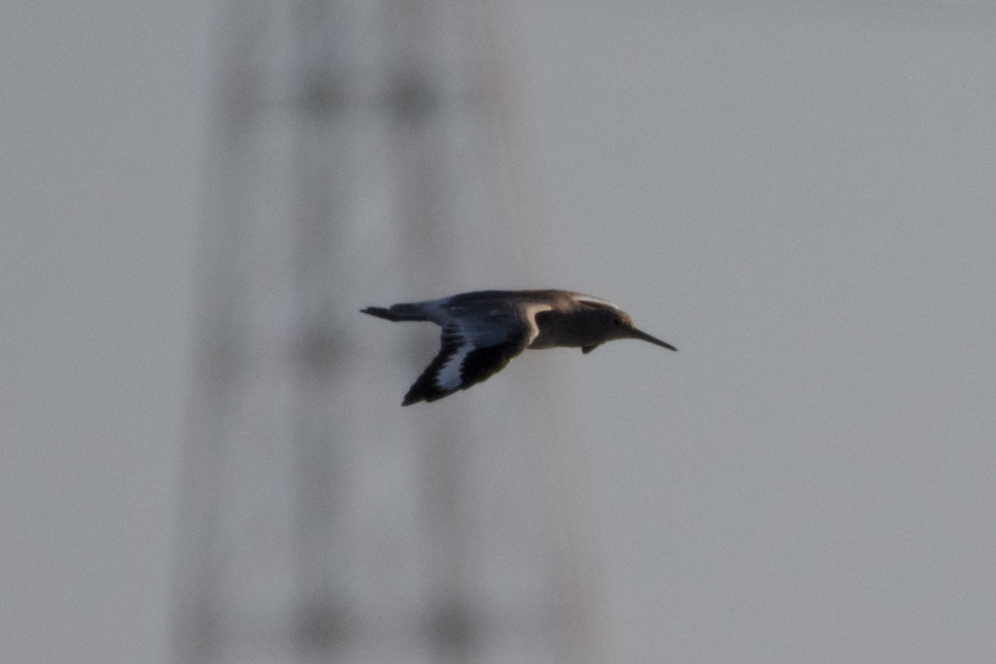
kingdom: Animalia
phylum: Chordata
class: Aves
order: Charadriiformes
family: Scolopacidae
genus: Tringa
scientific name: Tringa semipalmata
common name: Willet
